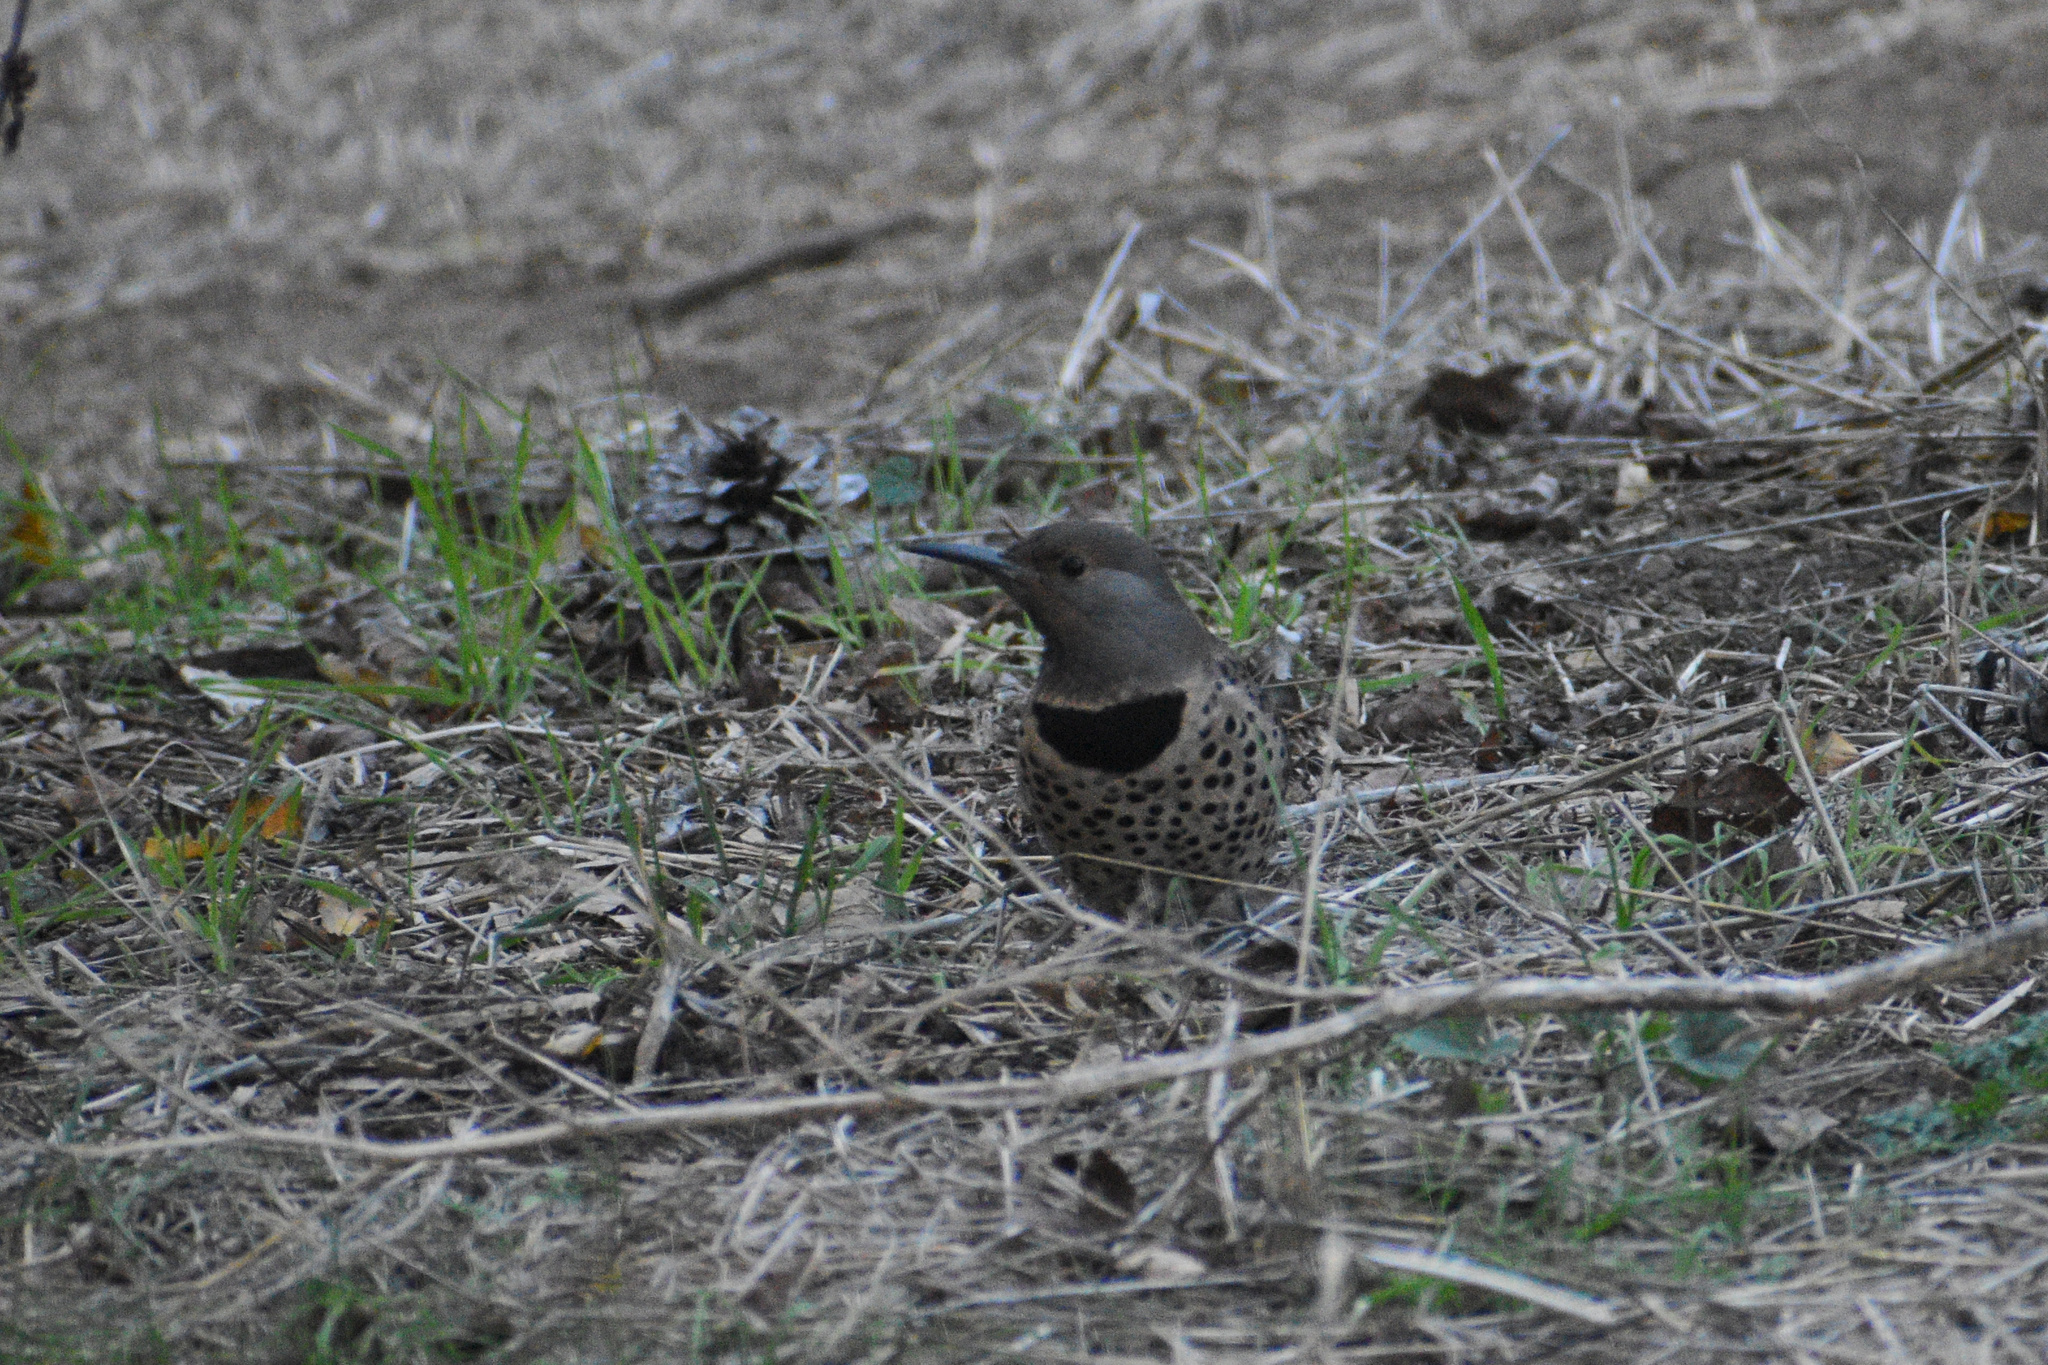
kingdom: Animalia
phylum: Chordata
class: Aves
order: Piciformes
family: Picidae
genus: Colaptes
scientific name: Colaptes auratus
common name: Northern flicker
